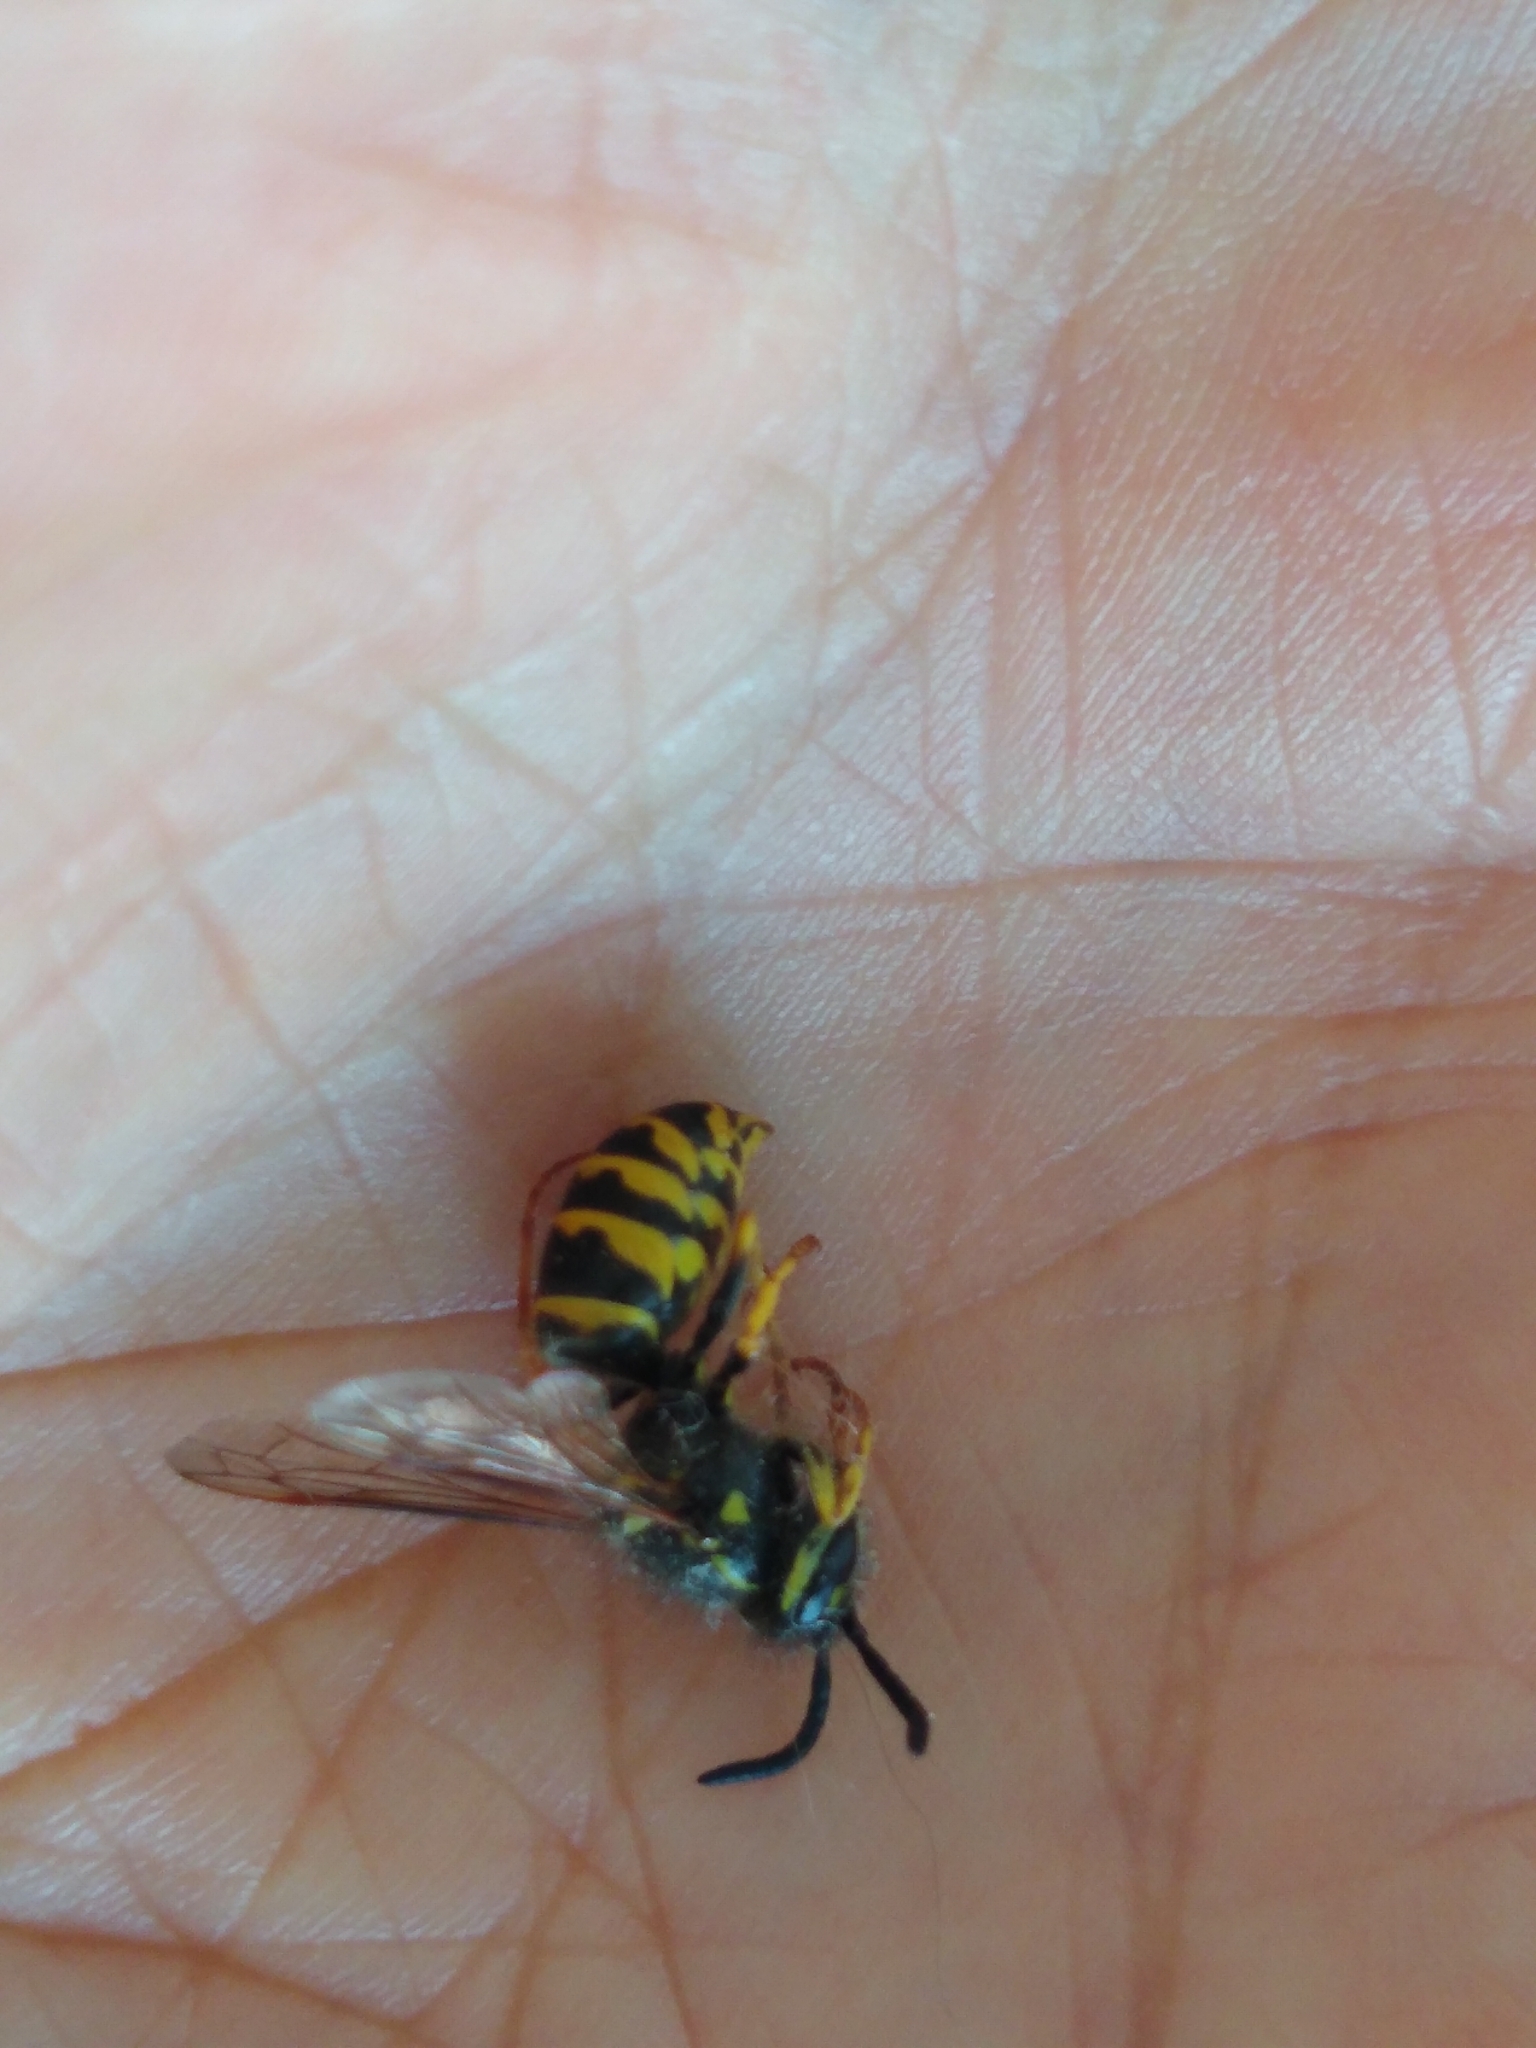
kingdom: Animalia
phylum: Arthropoda
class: Insecta
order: Hymenoptera
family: Vespidae
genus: Vespula
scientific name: Vespula alascensis
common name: Alaska yellowjacket
